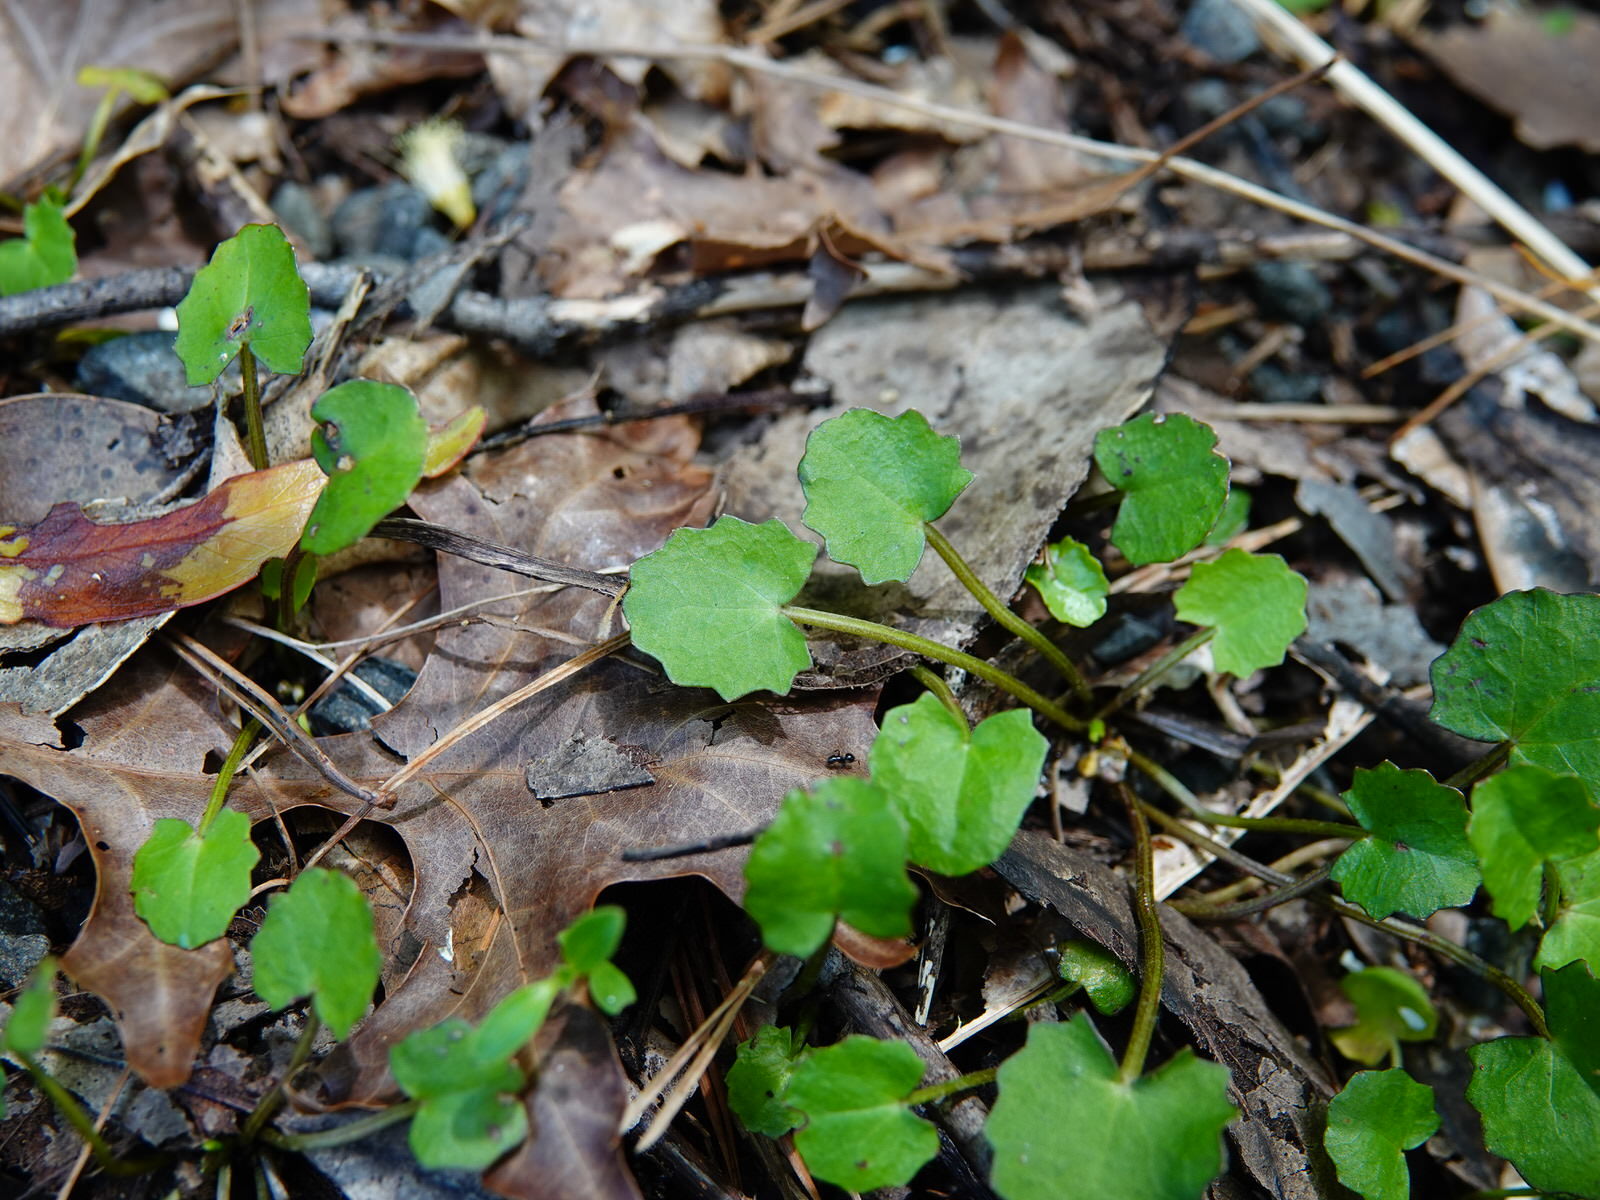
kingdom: Plantae
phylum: Tracheophyta
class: Magnoliopsida
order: Apiales
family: Apiaceae
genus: Centella
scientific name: Centella uniflora
